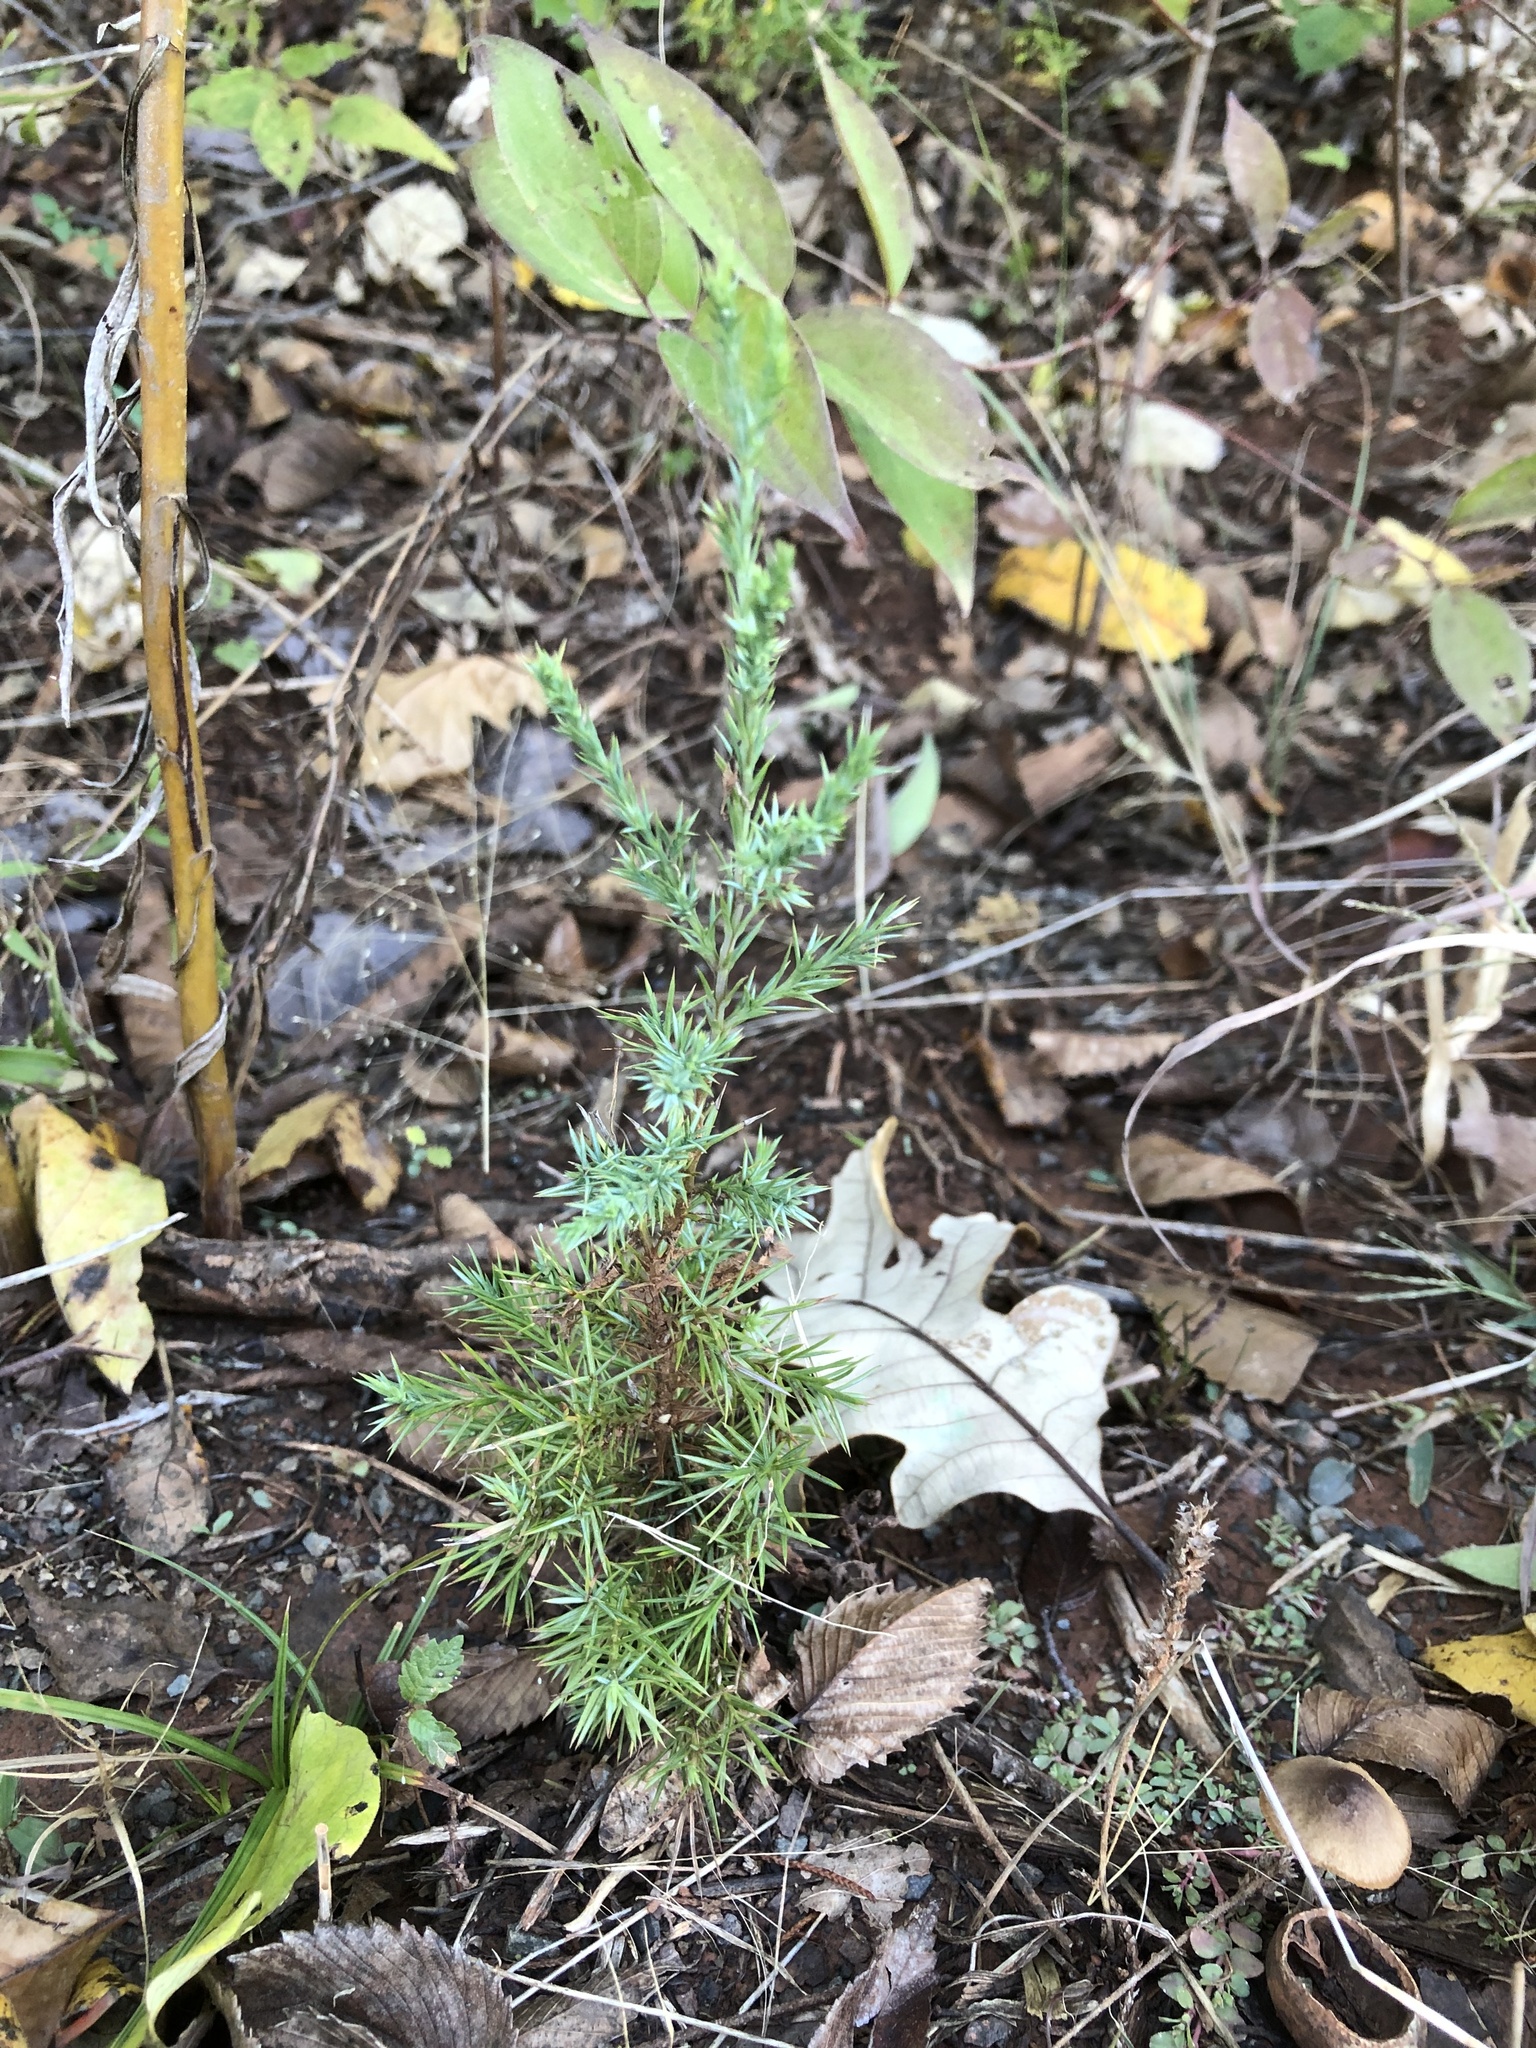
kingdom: Plantae
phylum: Tracheophyta
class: Pinopsida
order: Pinales
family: Cupressaceae
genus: Juniperus
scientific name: Juniperus virginiana
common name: Red juniper
